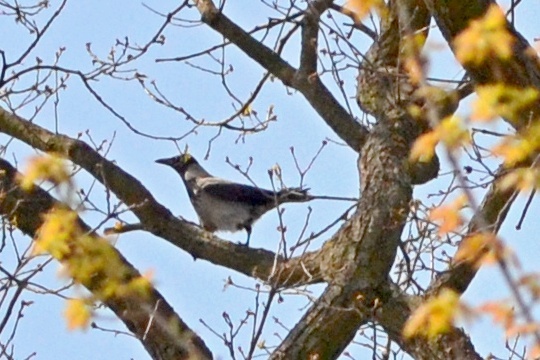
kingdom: Animalia
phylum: Chordata
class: Aves
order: Passeriformes
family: Corvidae
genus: Corvus
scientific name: Corvus cornix
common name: Hooded crow
